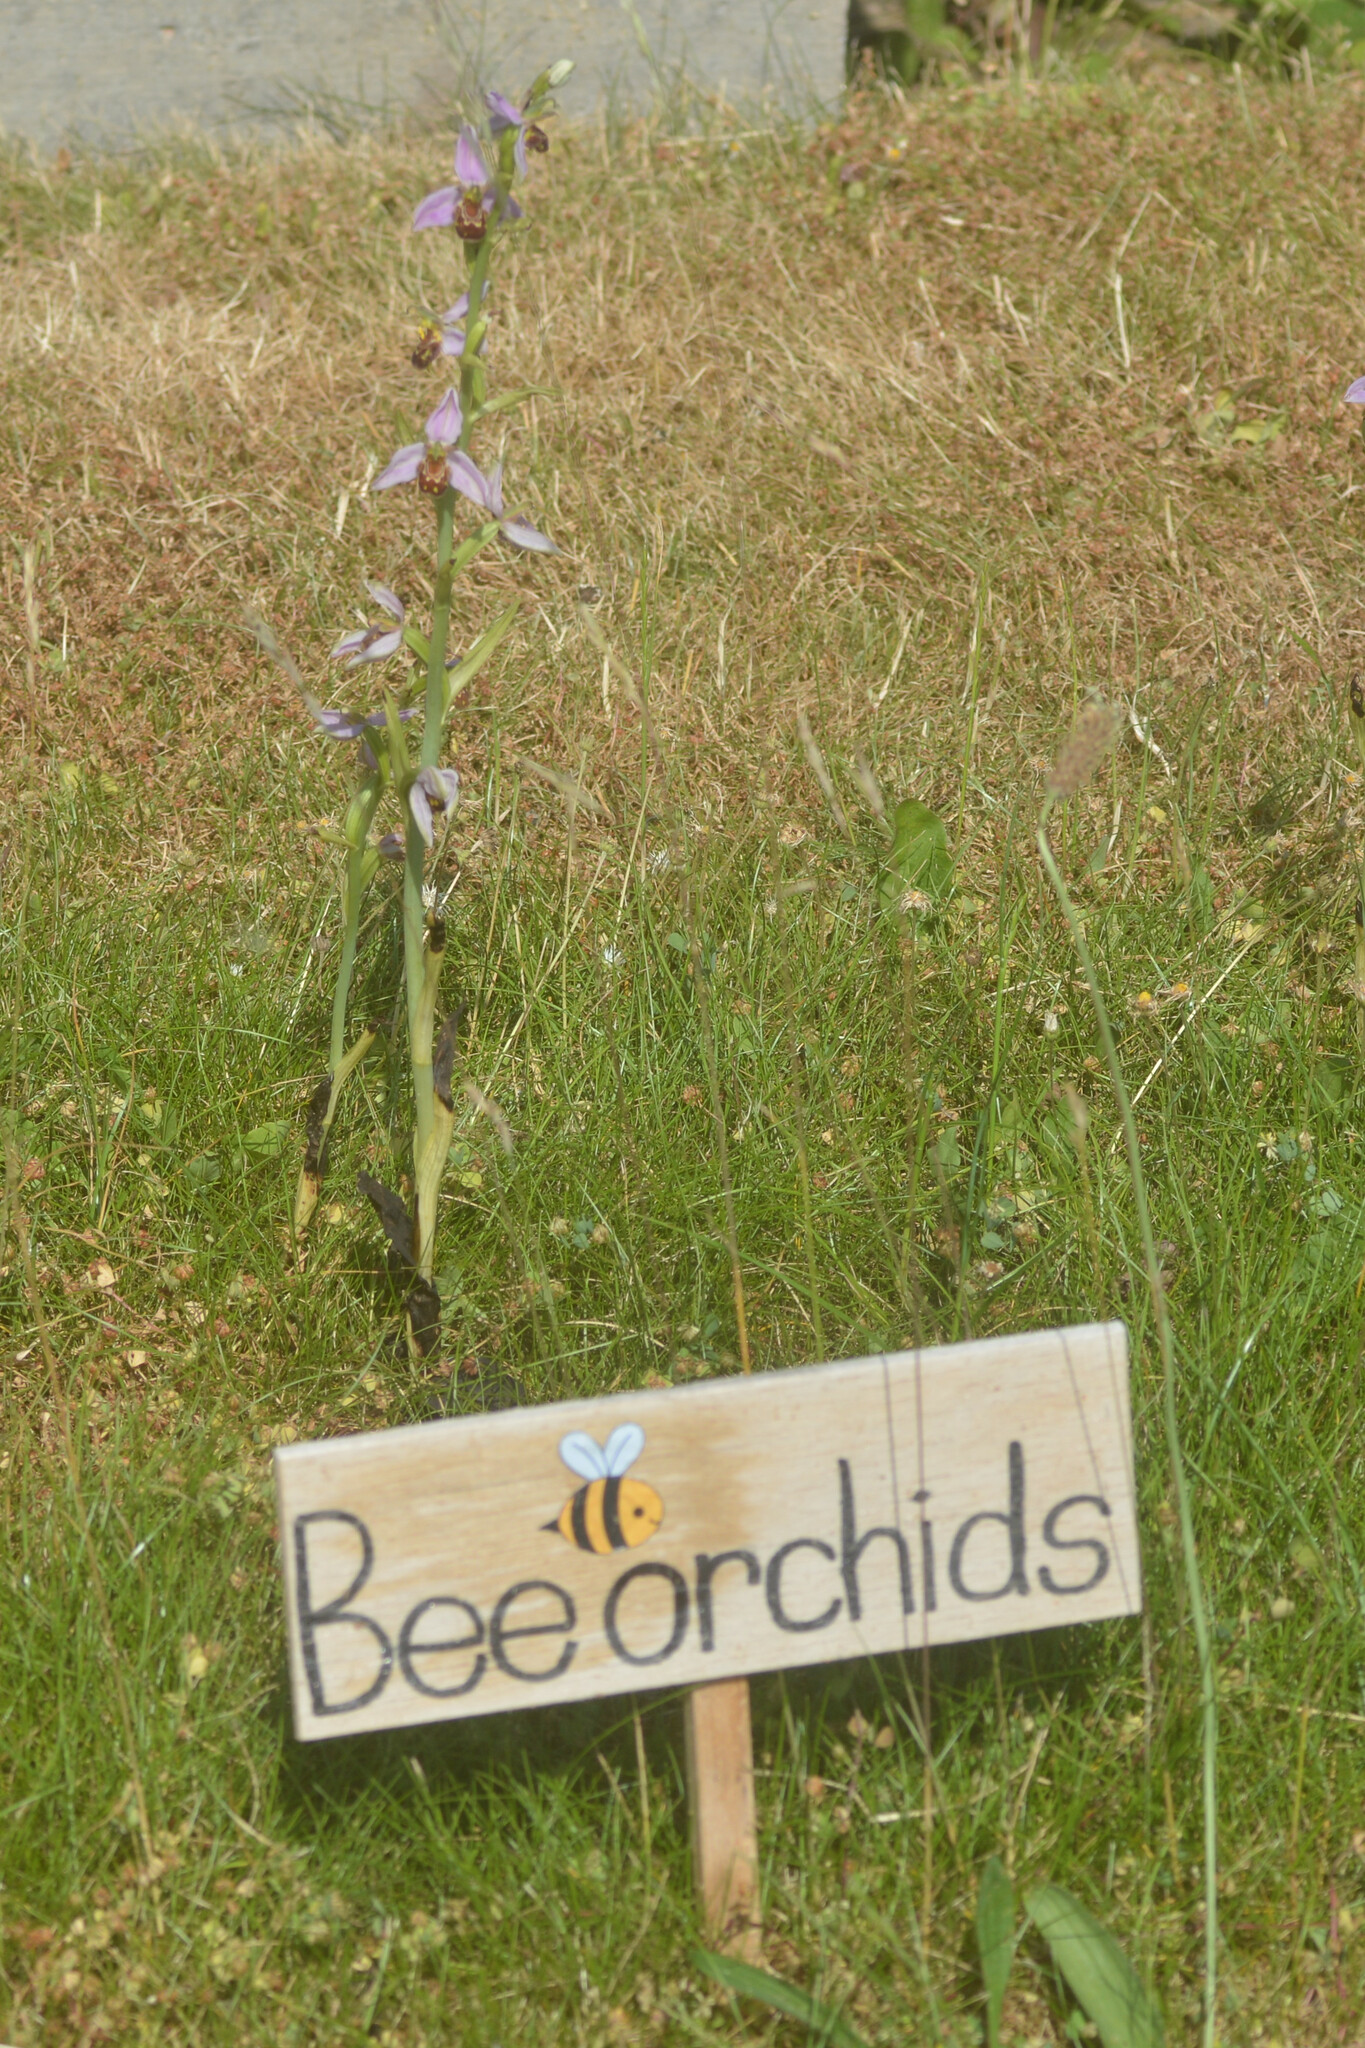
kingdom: Plantae
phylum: Tracheophyta
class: Liliopsida
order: Asparagales
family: Orchidaceae
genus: Ophrys
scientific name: Ophrys apifera
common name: Bee orchid
